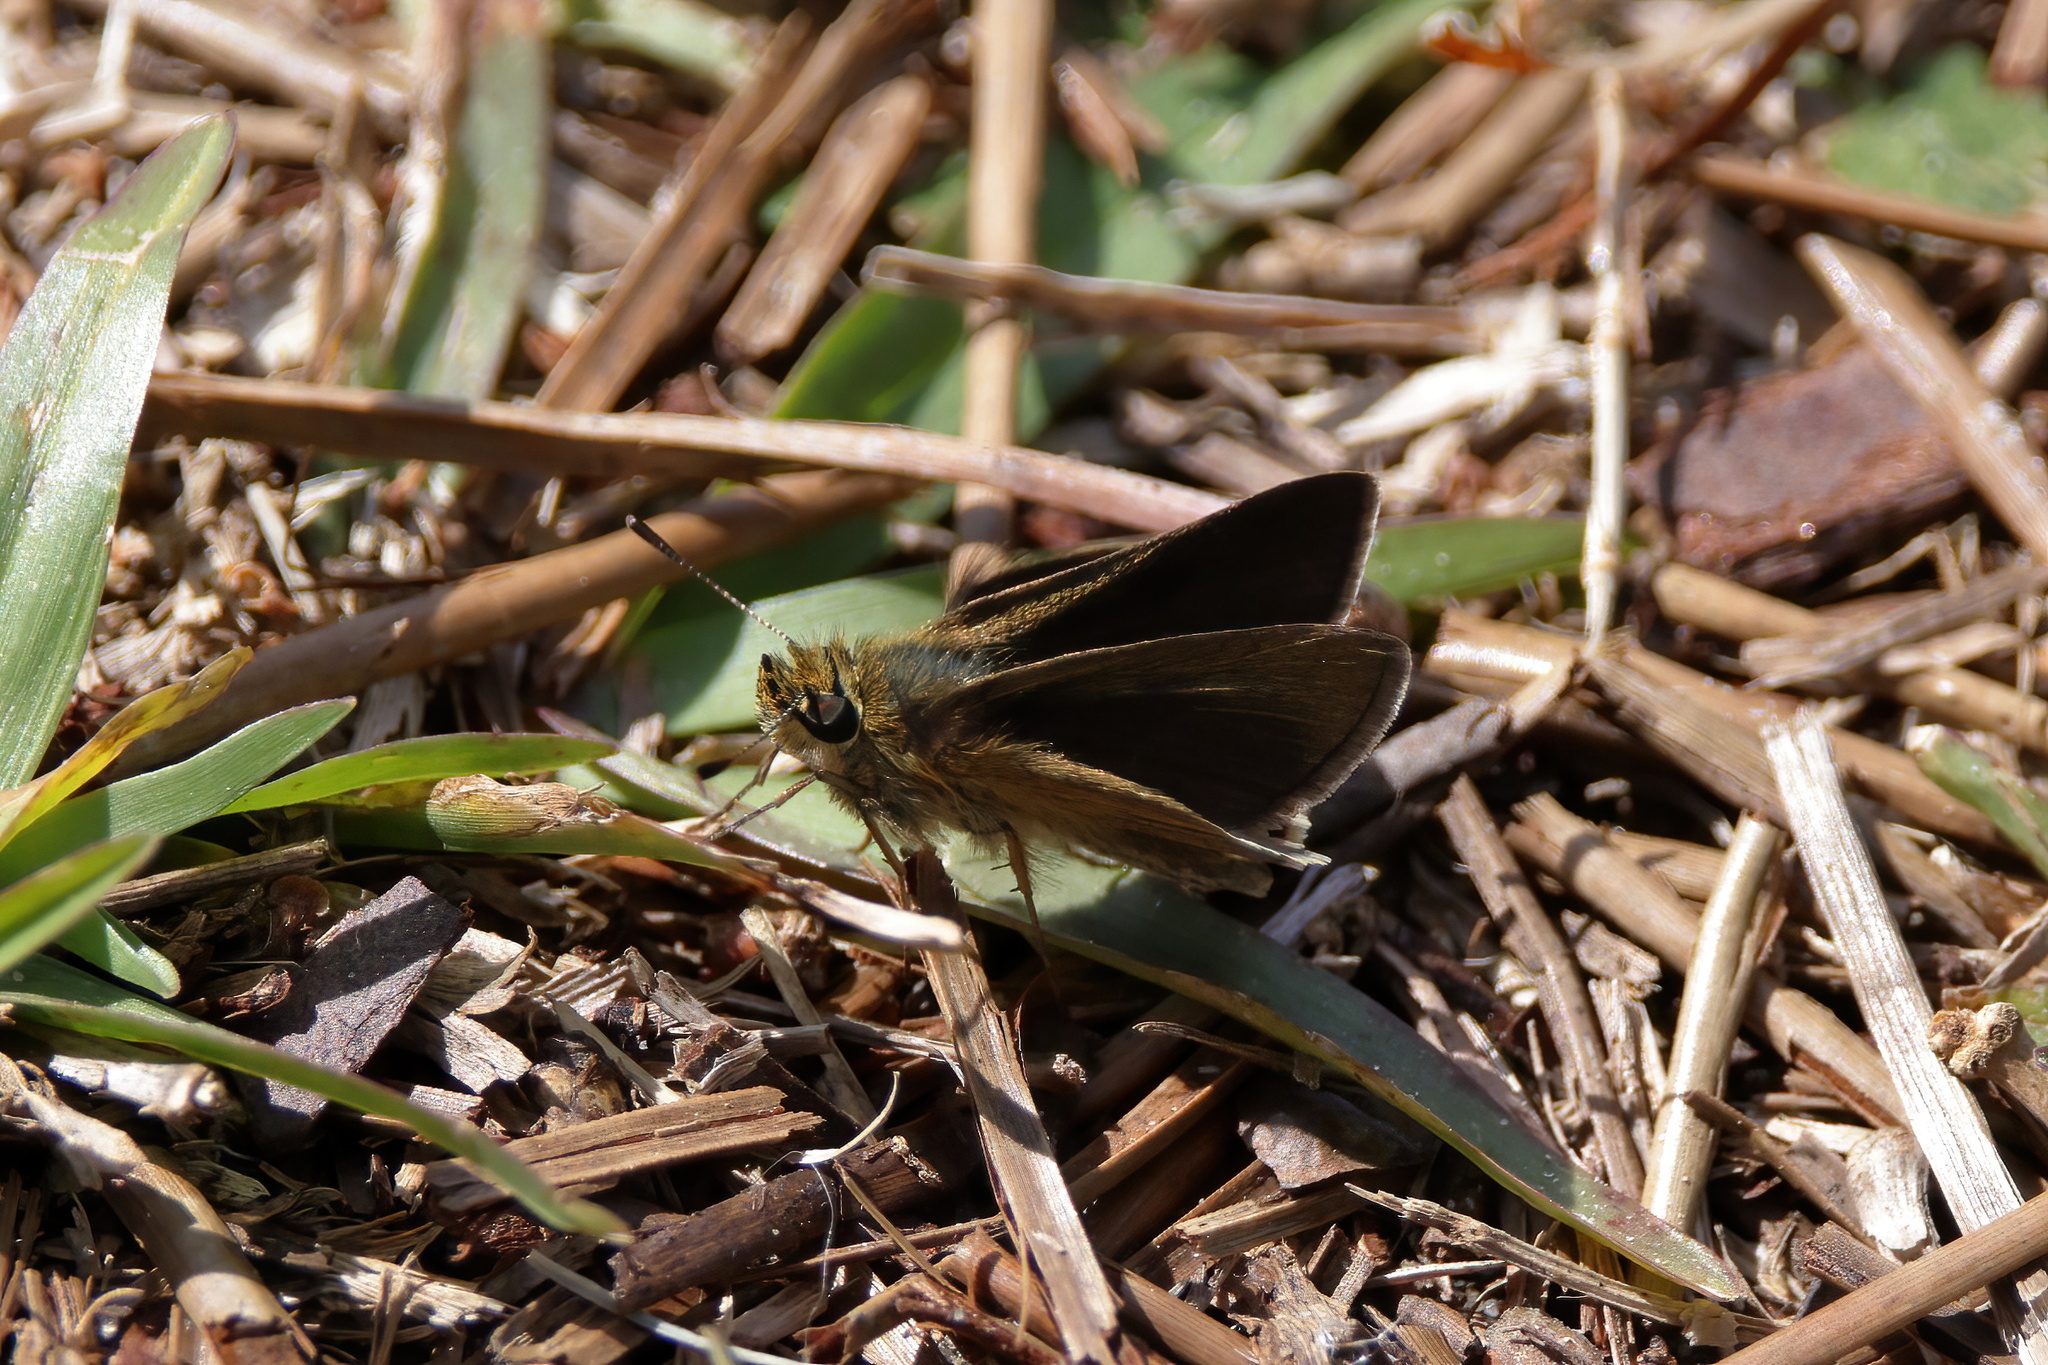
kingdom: Animalia
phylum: Arthropoda
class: Insecta
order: Lepidoptera
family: Hesperiidae
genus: Euphyes
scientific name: Euphyes vestris
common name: Dun skipper
